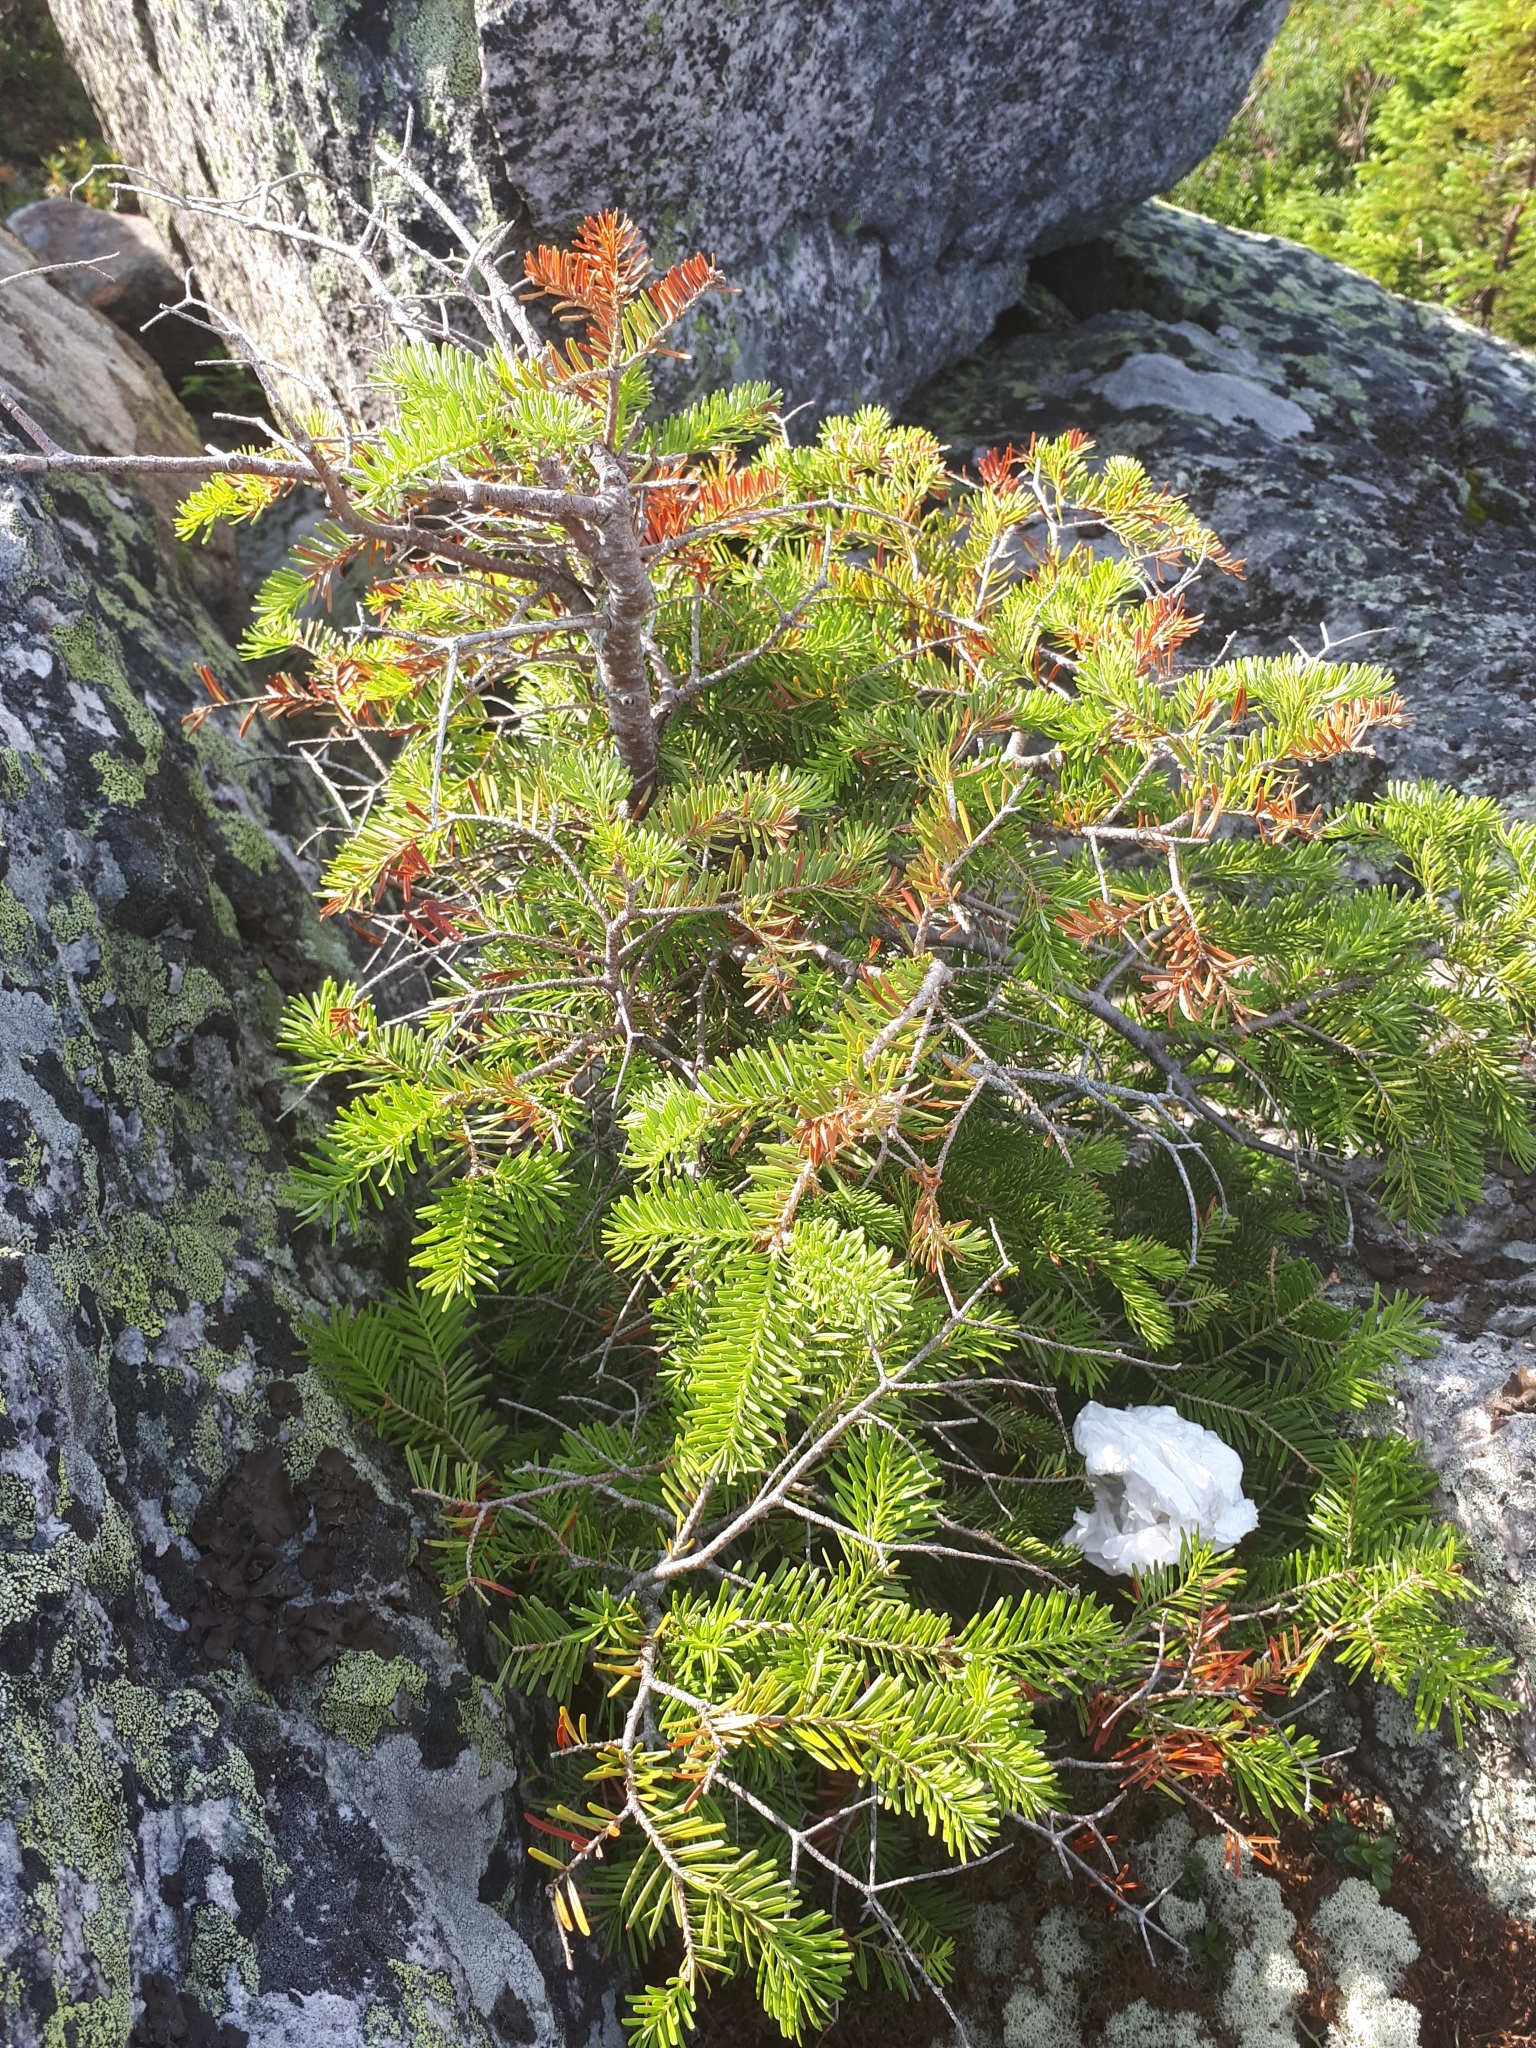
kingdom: Plantae
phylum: Tracheophyta
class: Pinopsida
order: Pinales
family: Pinaceae
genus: Abies
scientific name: Abies balsamea
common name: Balsam fir
